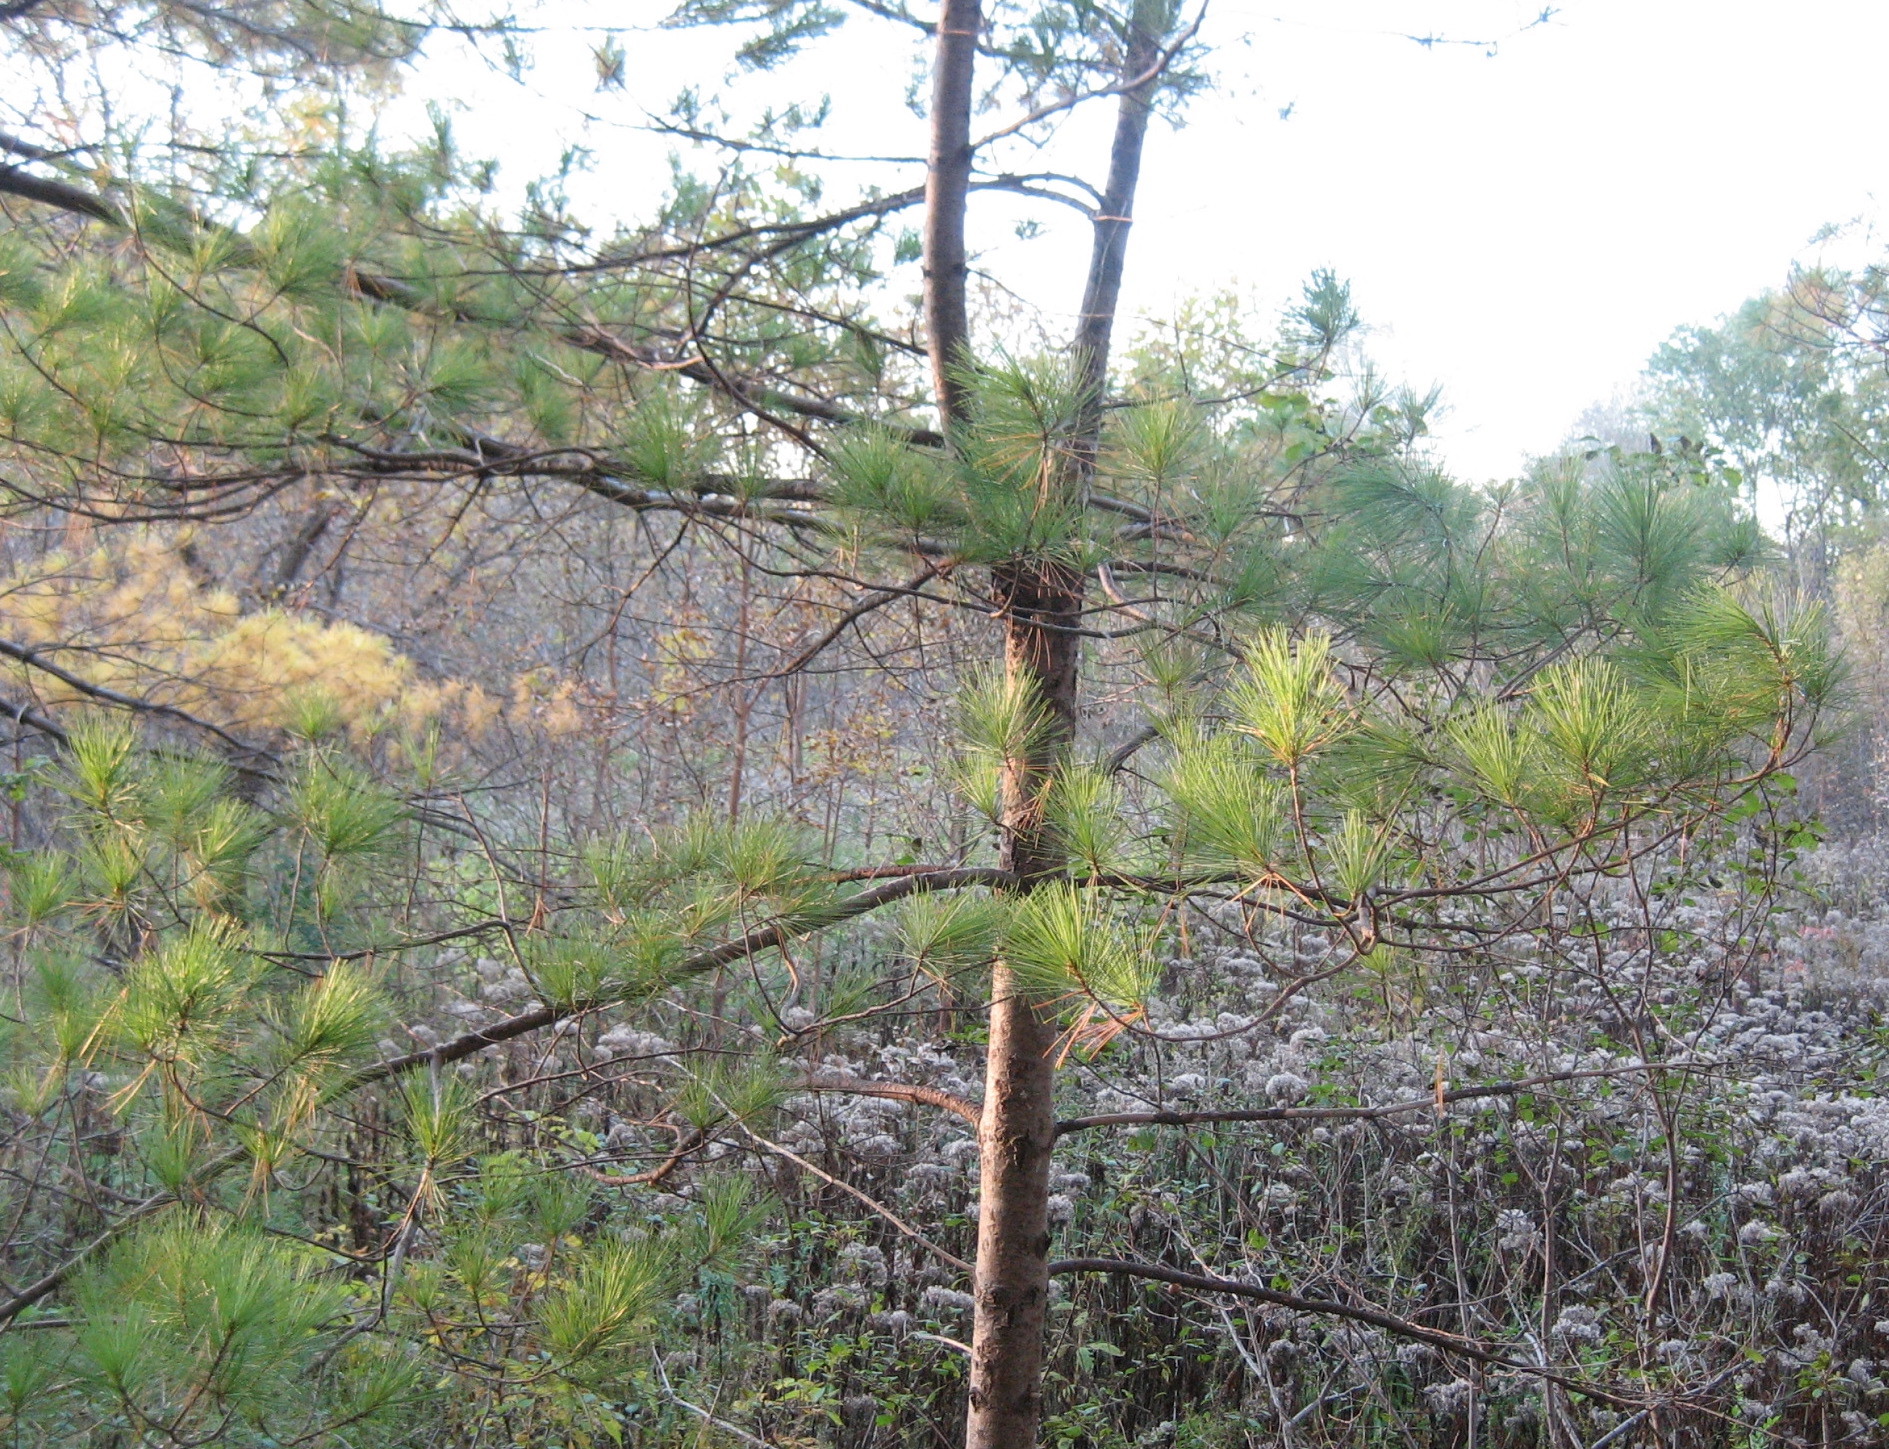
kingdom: Plantae
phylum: Tracheophyta
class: Pinopsida
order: Pinales
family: Pinaceae
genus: Pinus
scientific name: Pinus strobus
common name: Weymouth pine
